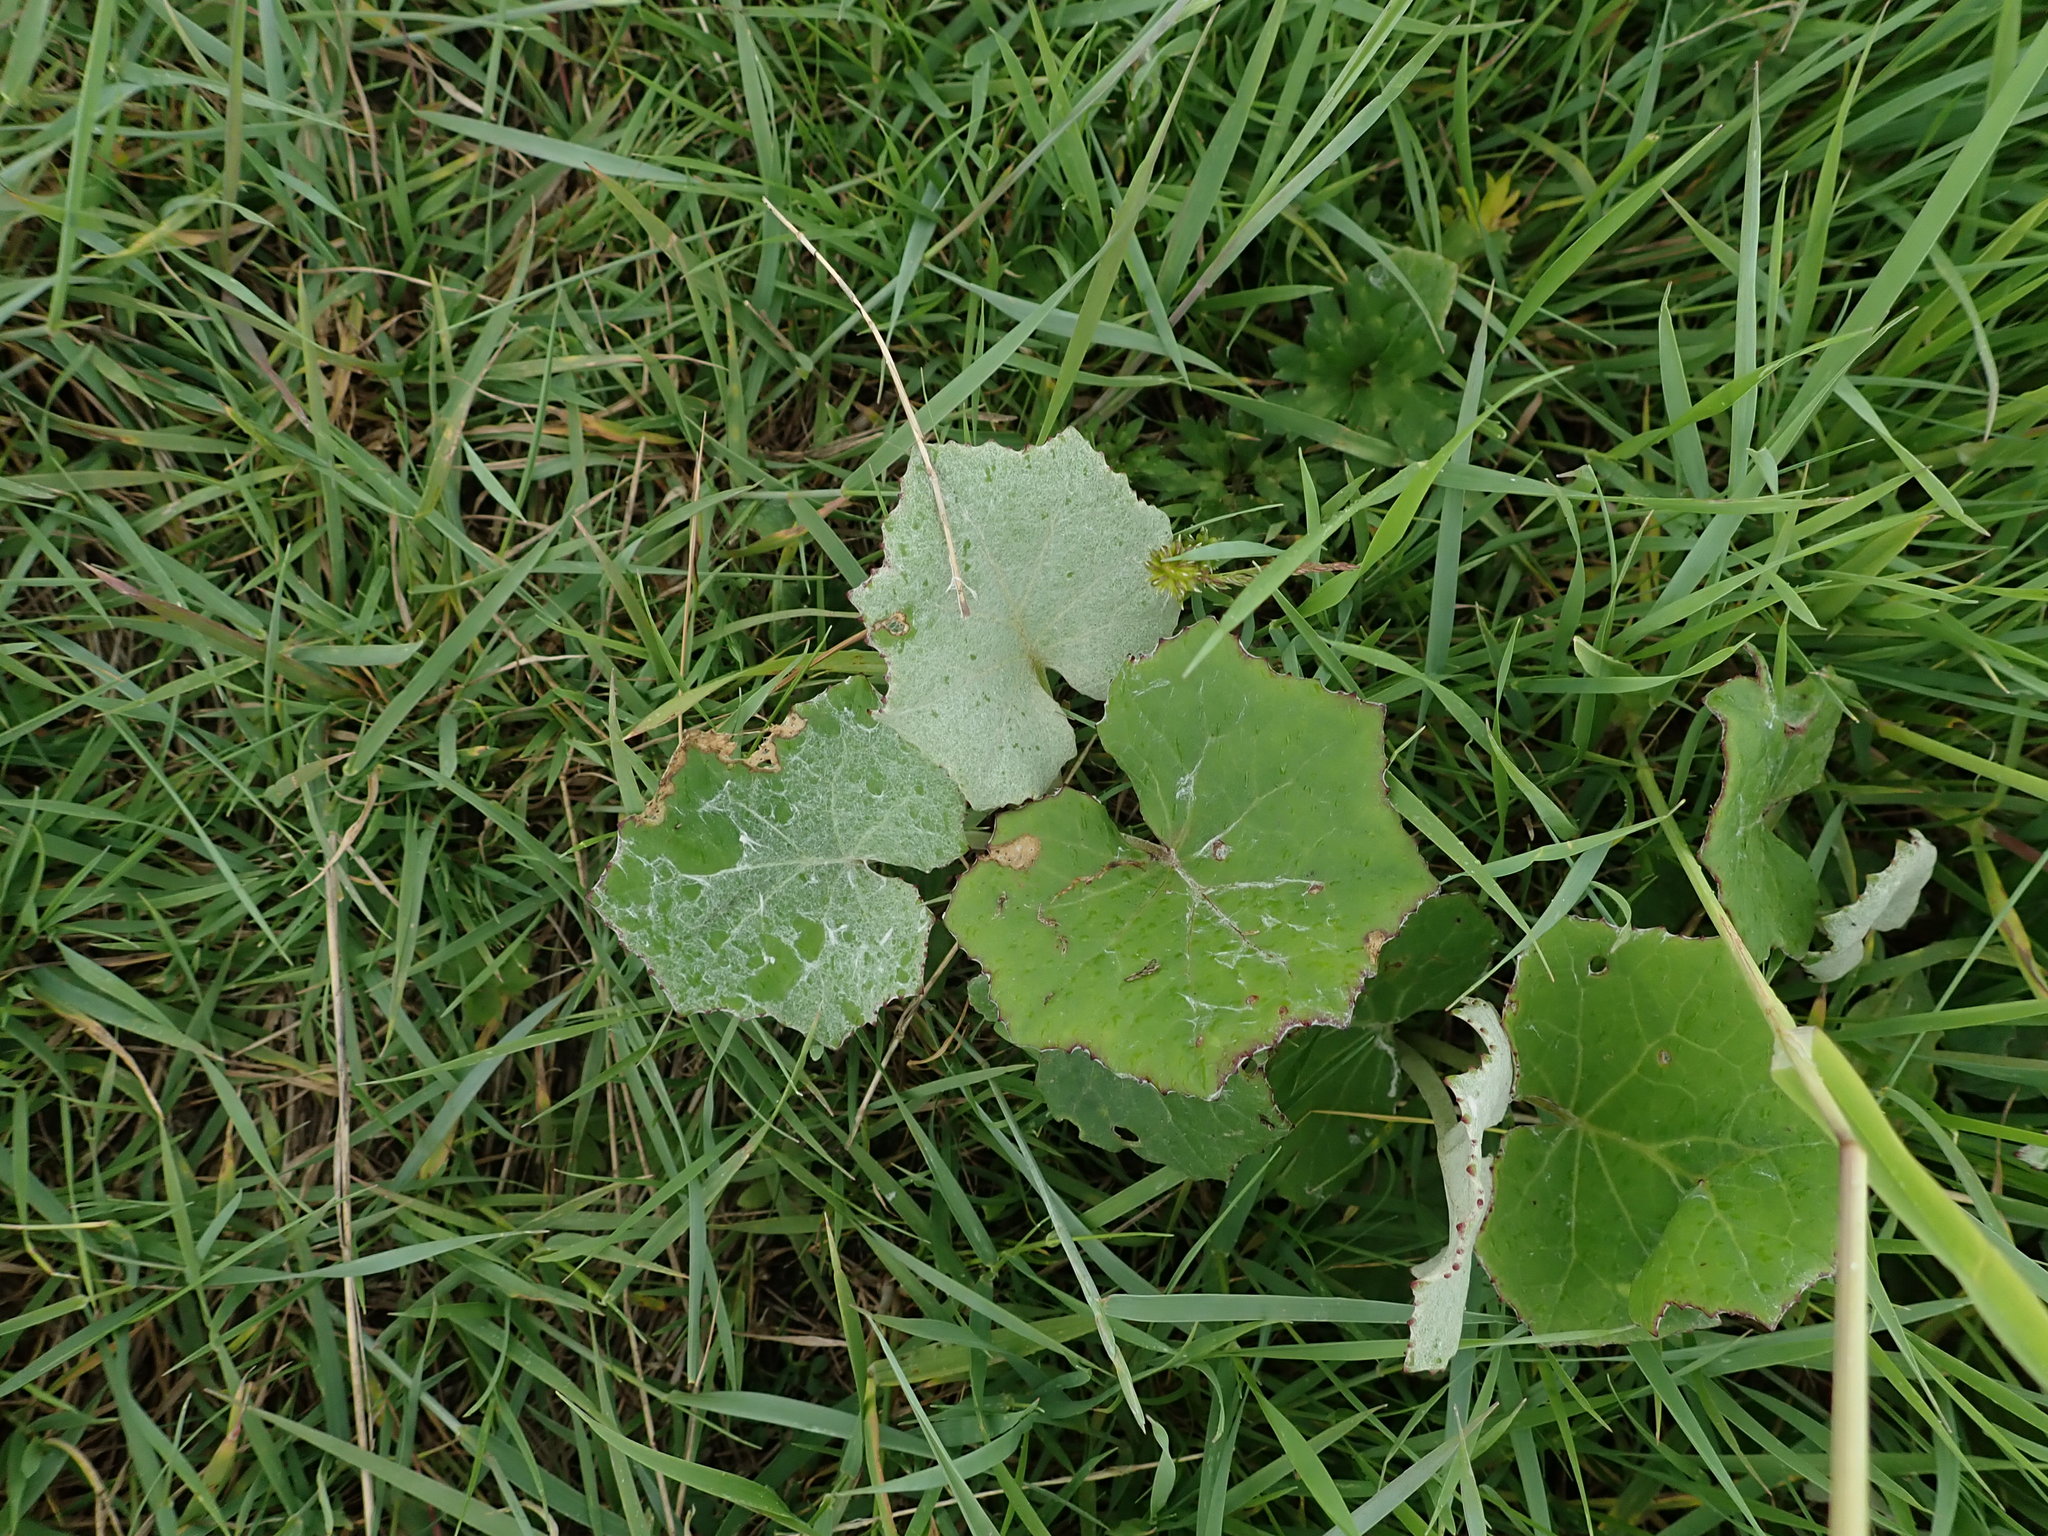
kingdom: Plantae
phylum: Tracheophyta
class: Magnoliopsida
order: Asterales
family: Asteraceae
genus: Tussilago
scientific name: Tussilago farfara
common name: Coltsfoot
